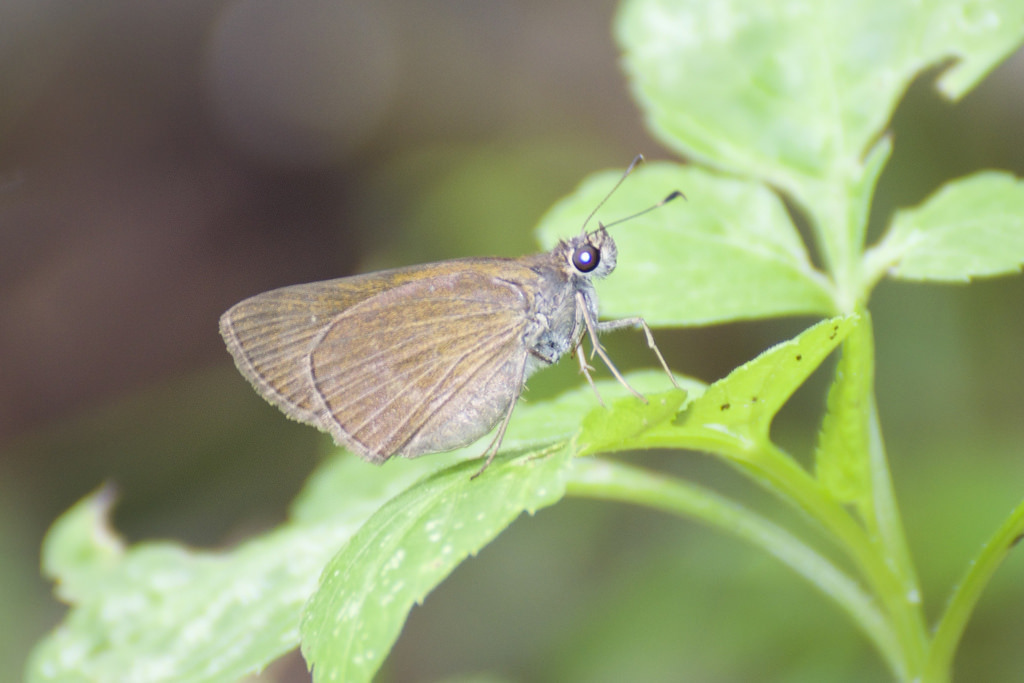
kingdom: Animalia
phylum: Arthropoda
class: Insecta
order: Lepidoptera
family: Hesperiidae
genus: Cymaenes
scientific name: Cymaenes tripunctus
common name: Dingy dotted skipper
